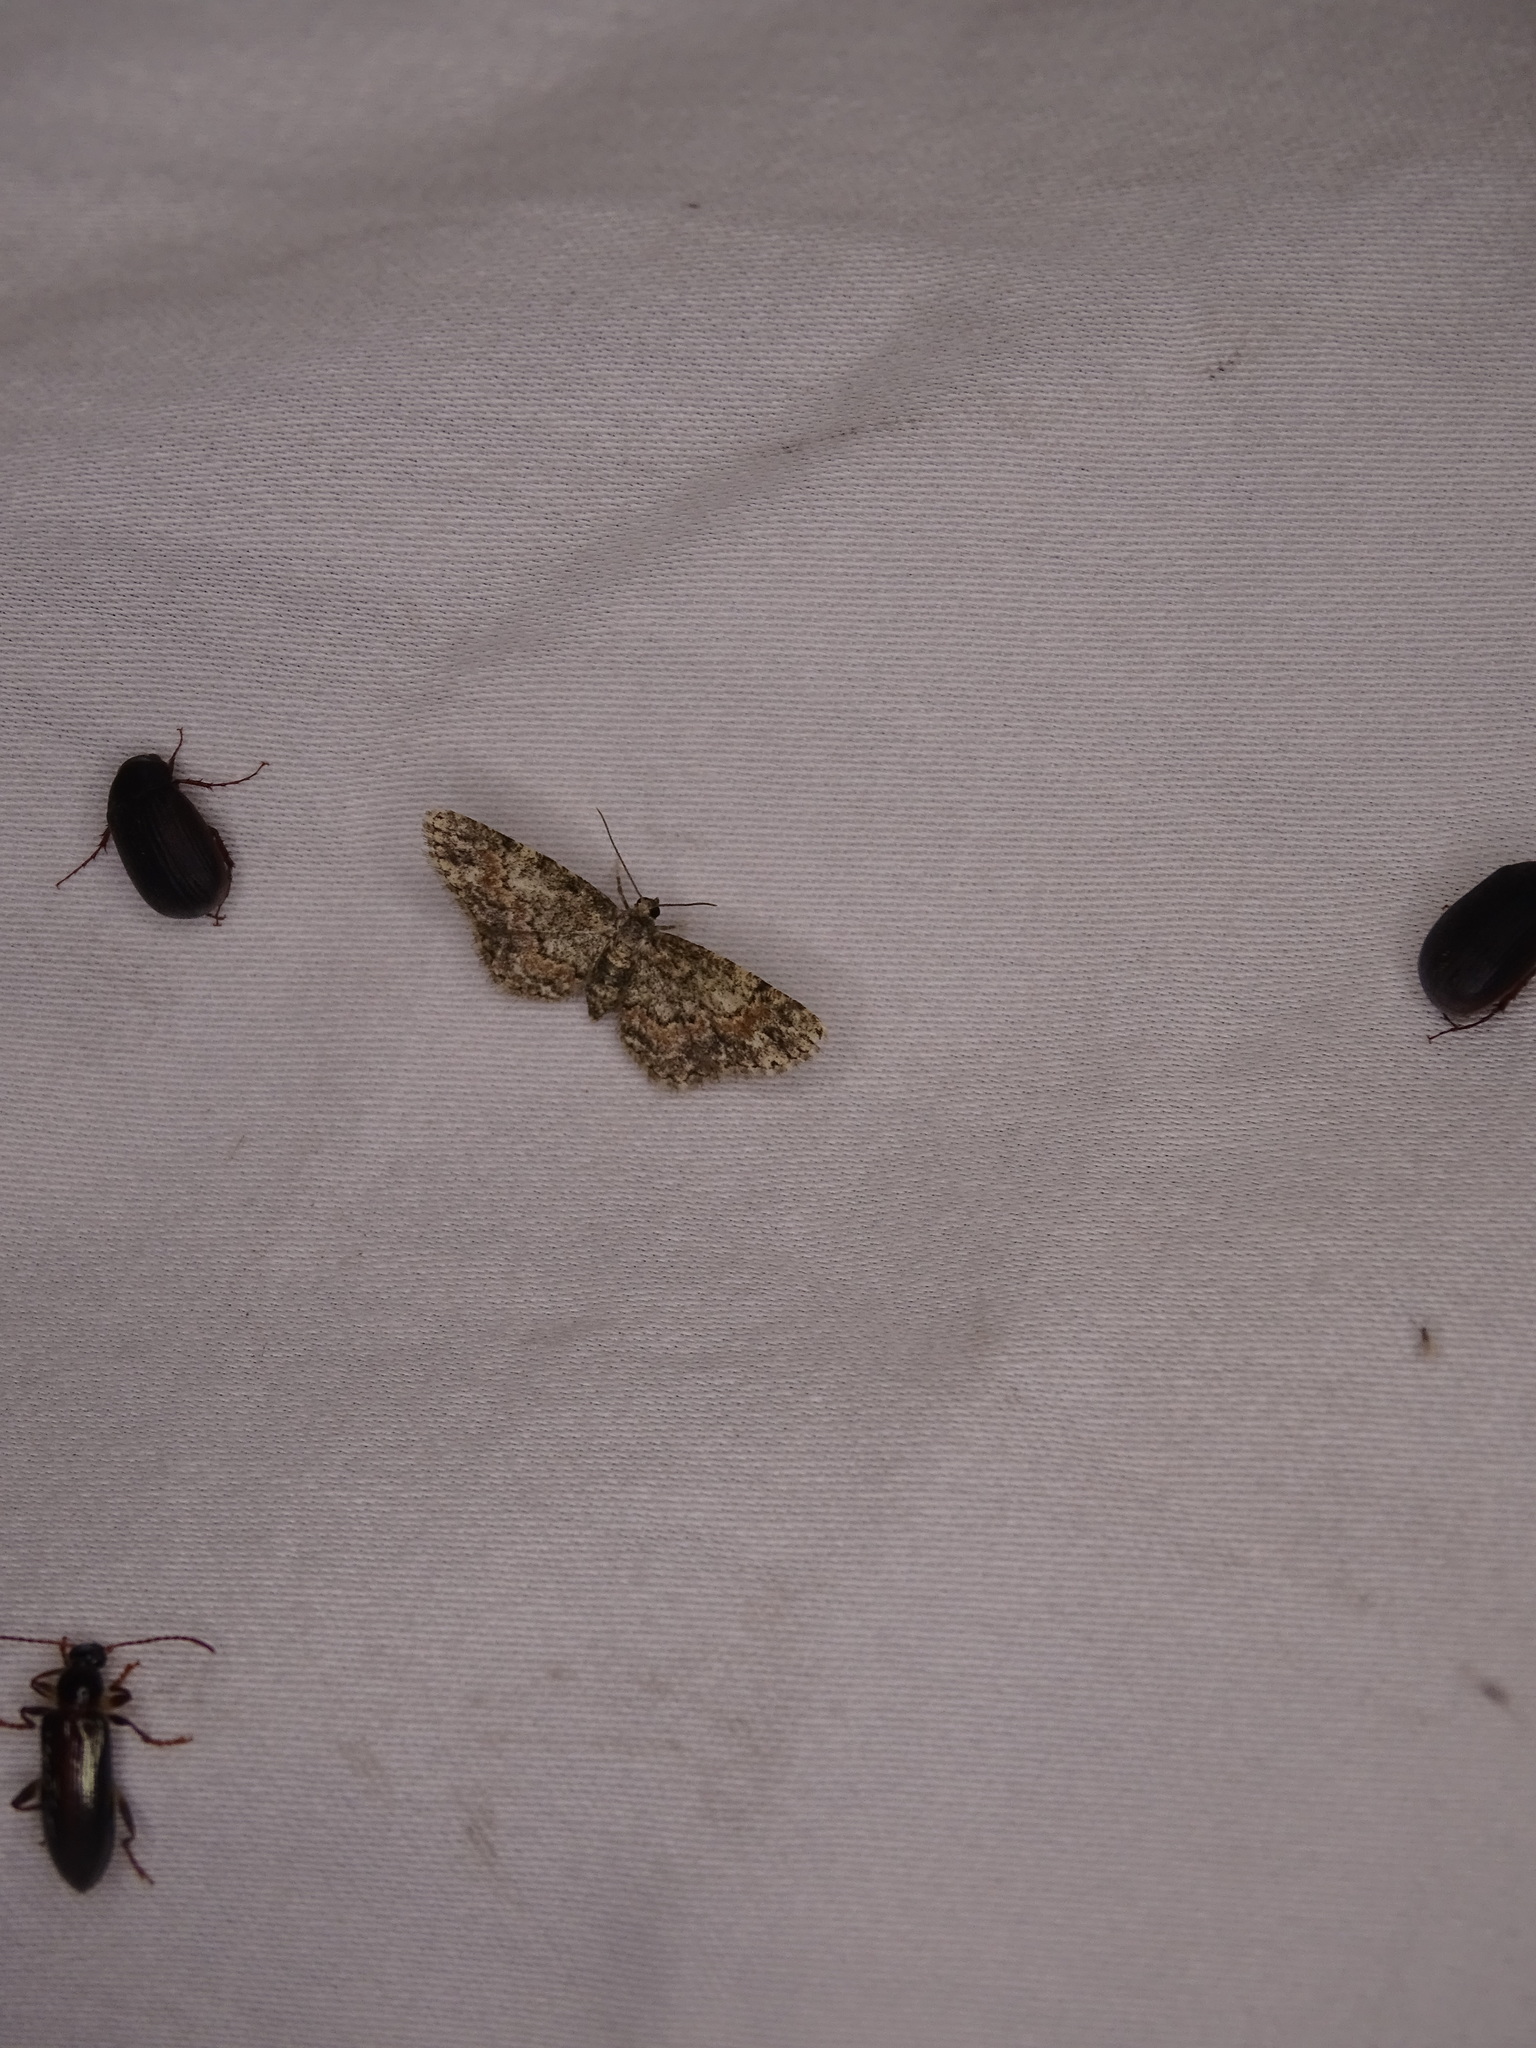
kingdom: Animalia
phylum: Arthropoda
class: Insecta
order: Lepidoptera
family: Geometridae
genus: Glenoides
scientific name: Glenoides texanaria
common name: Texas gray
